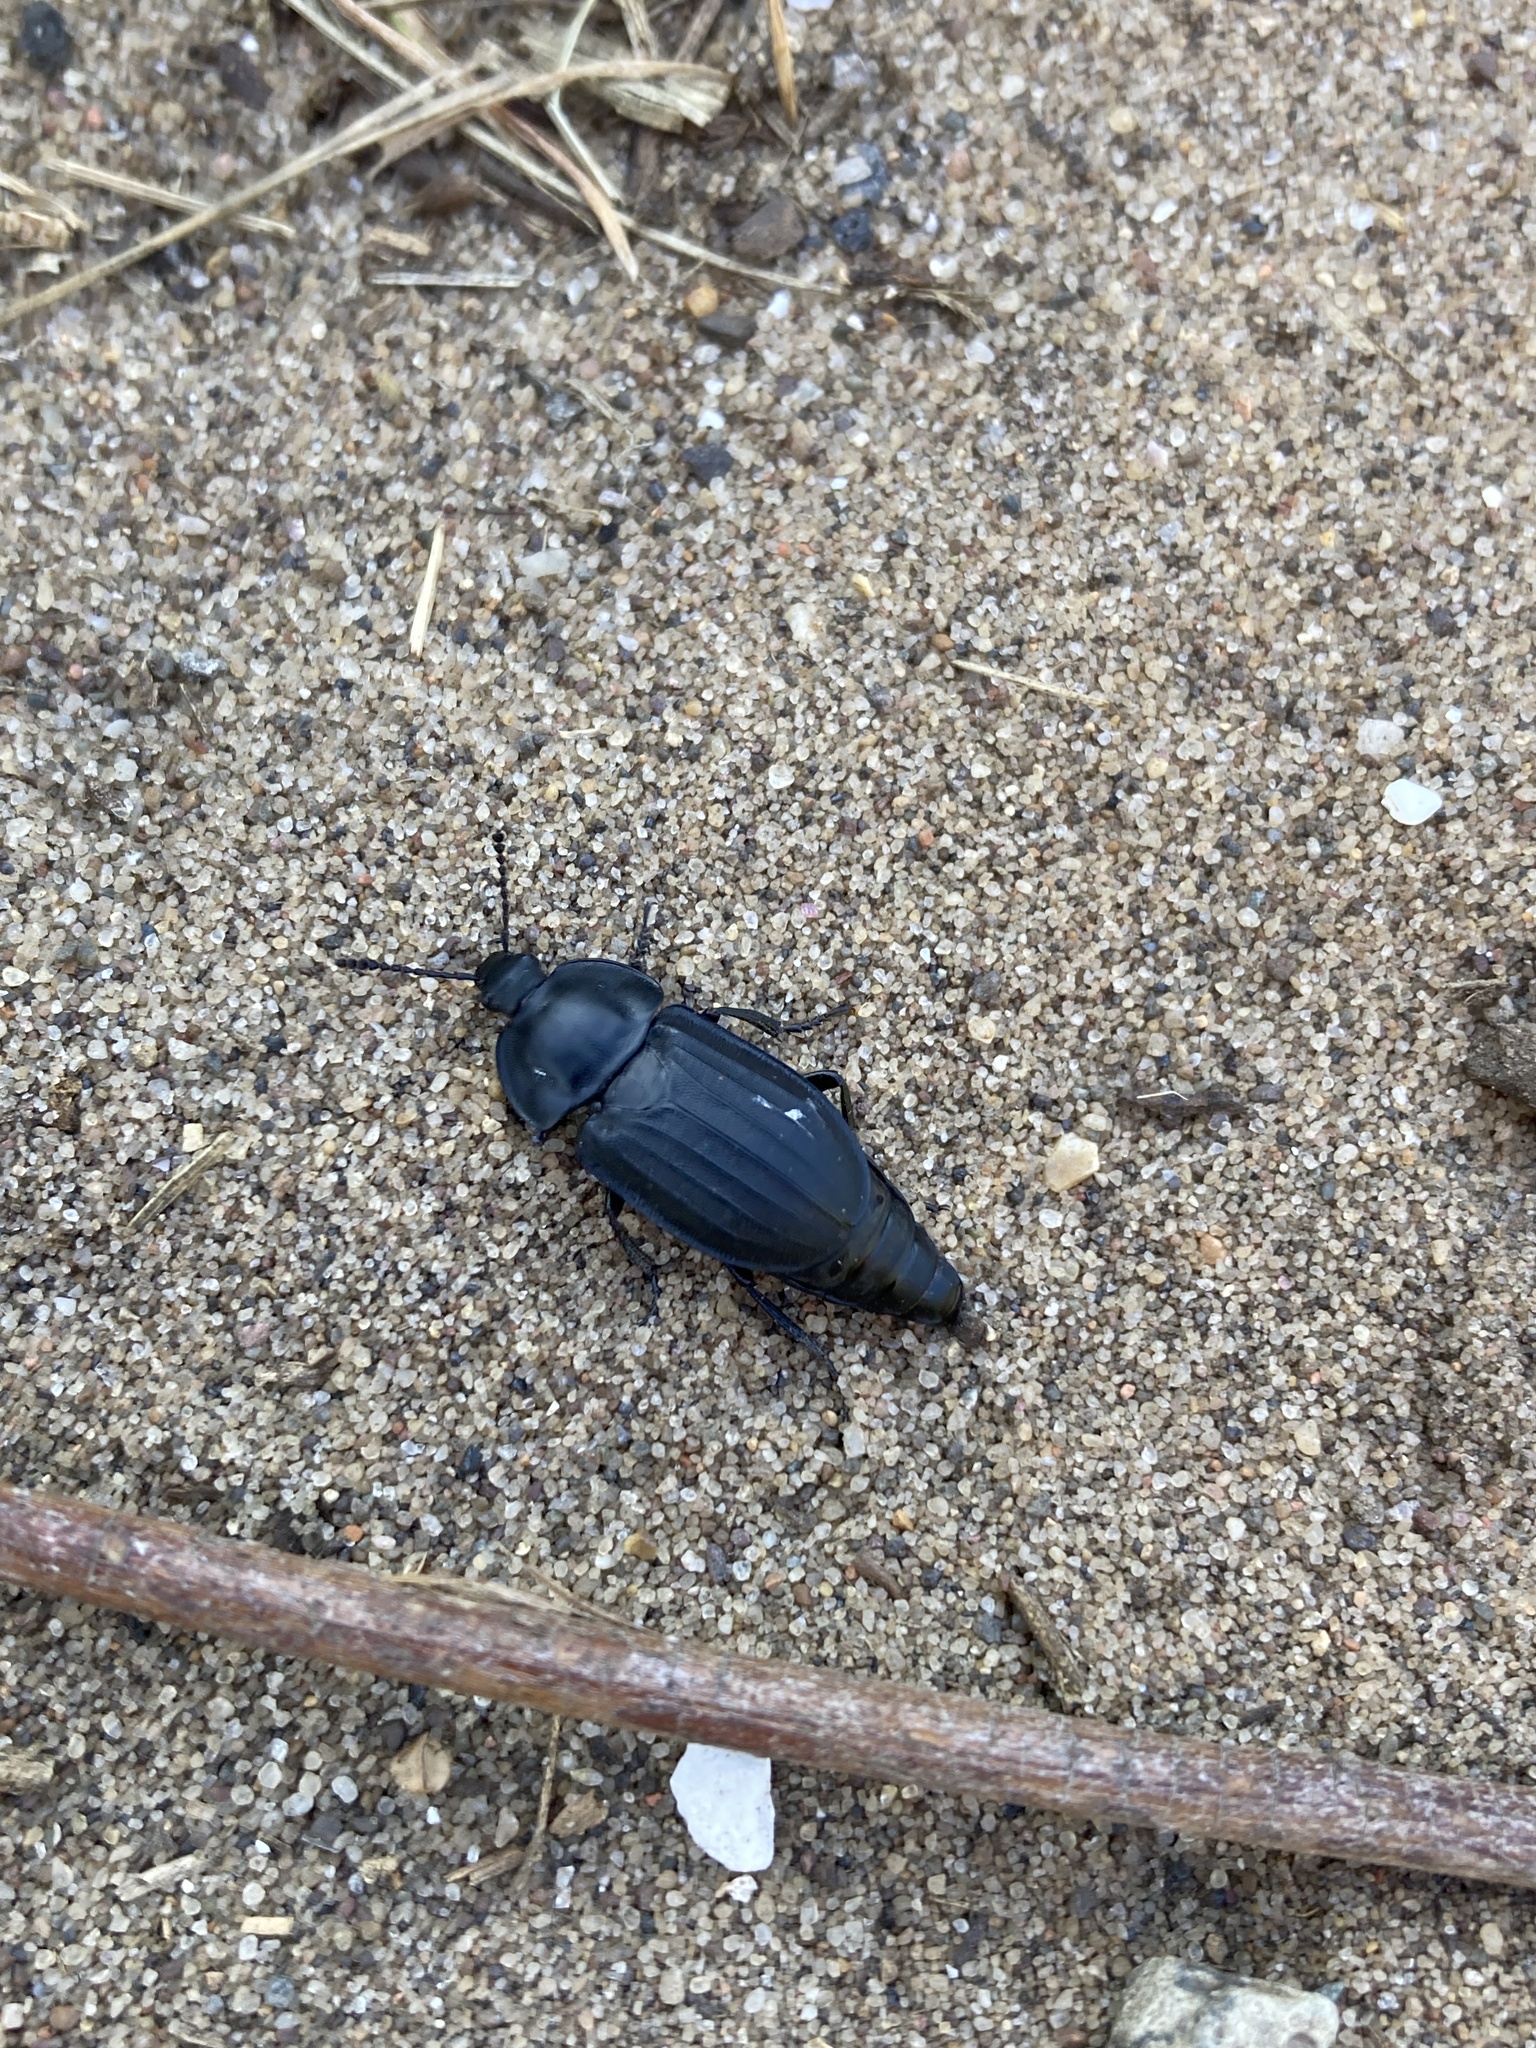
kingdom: Animalia
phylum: Arthropoda
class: Insecta
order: Coleoptera
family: Staphylinidae
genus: Silpha
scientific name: Silpha tristis
